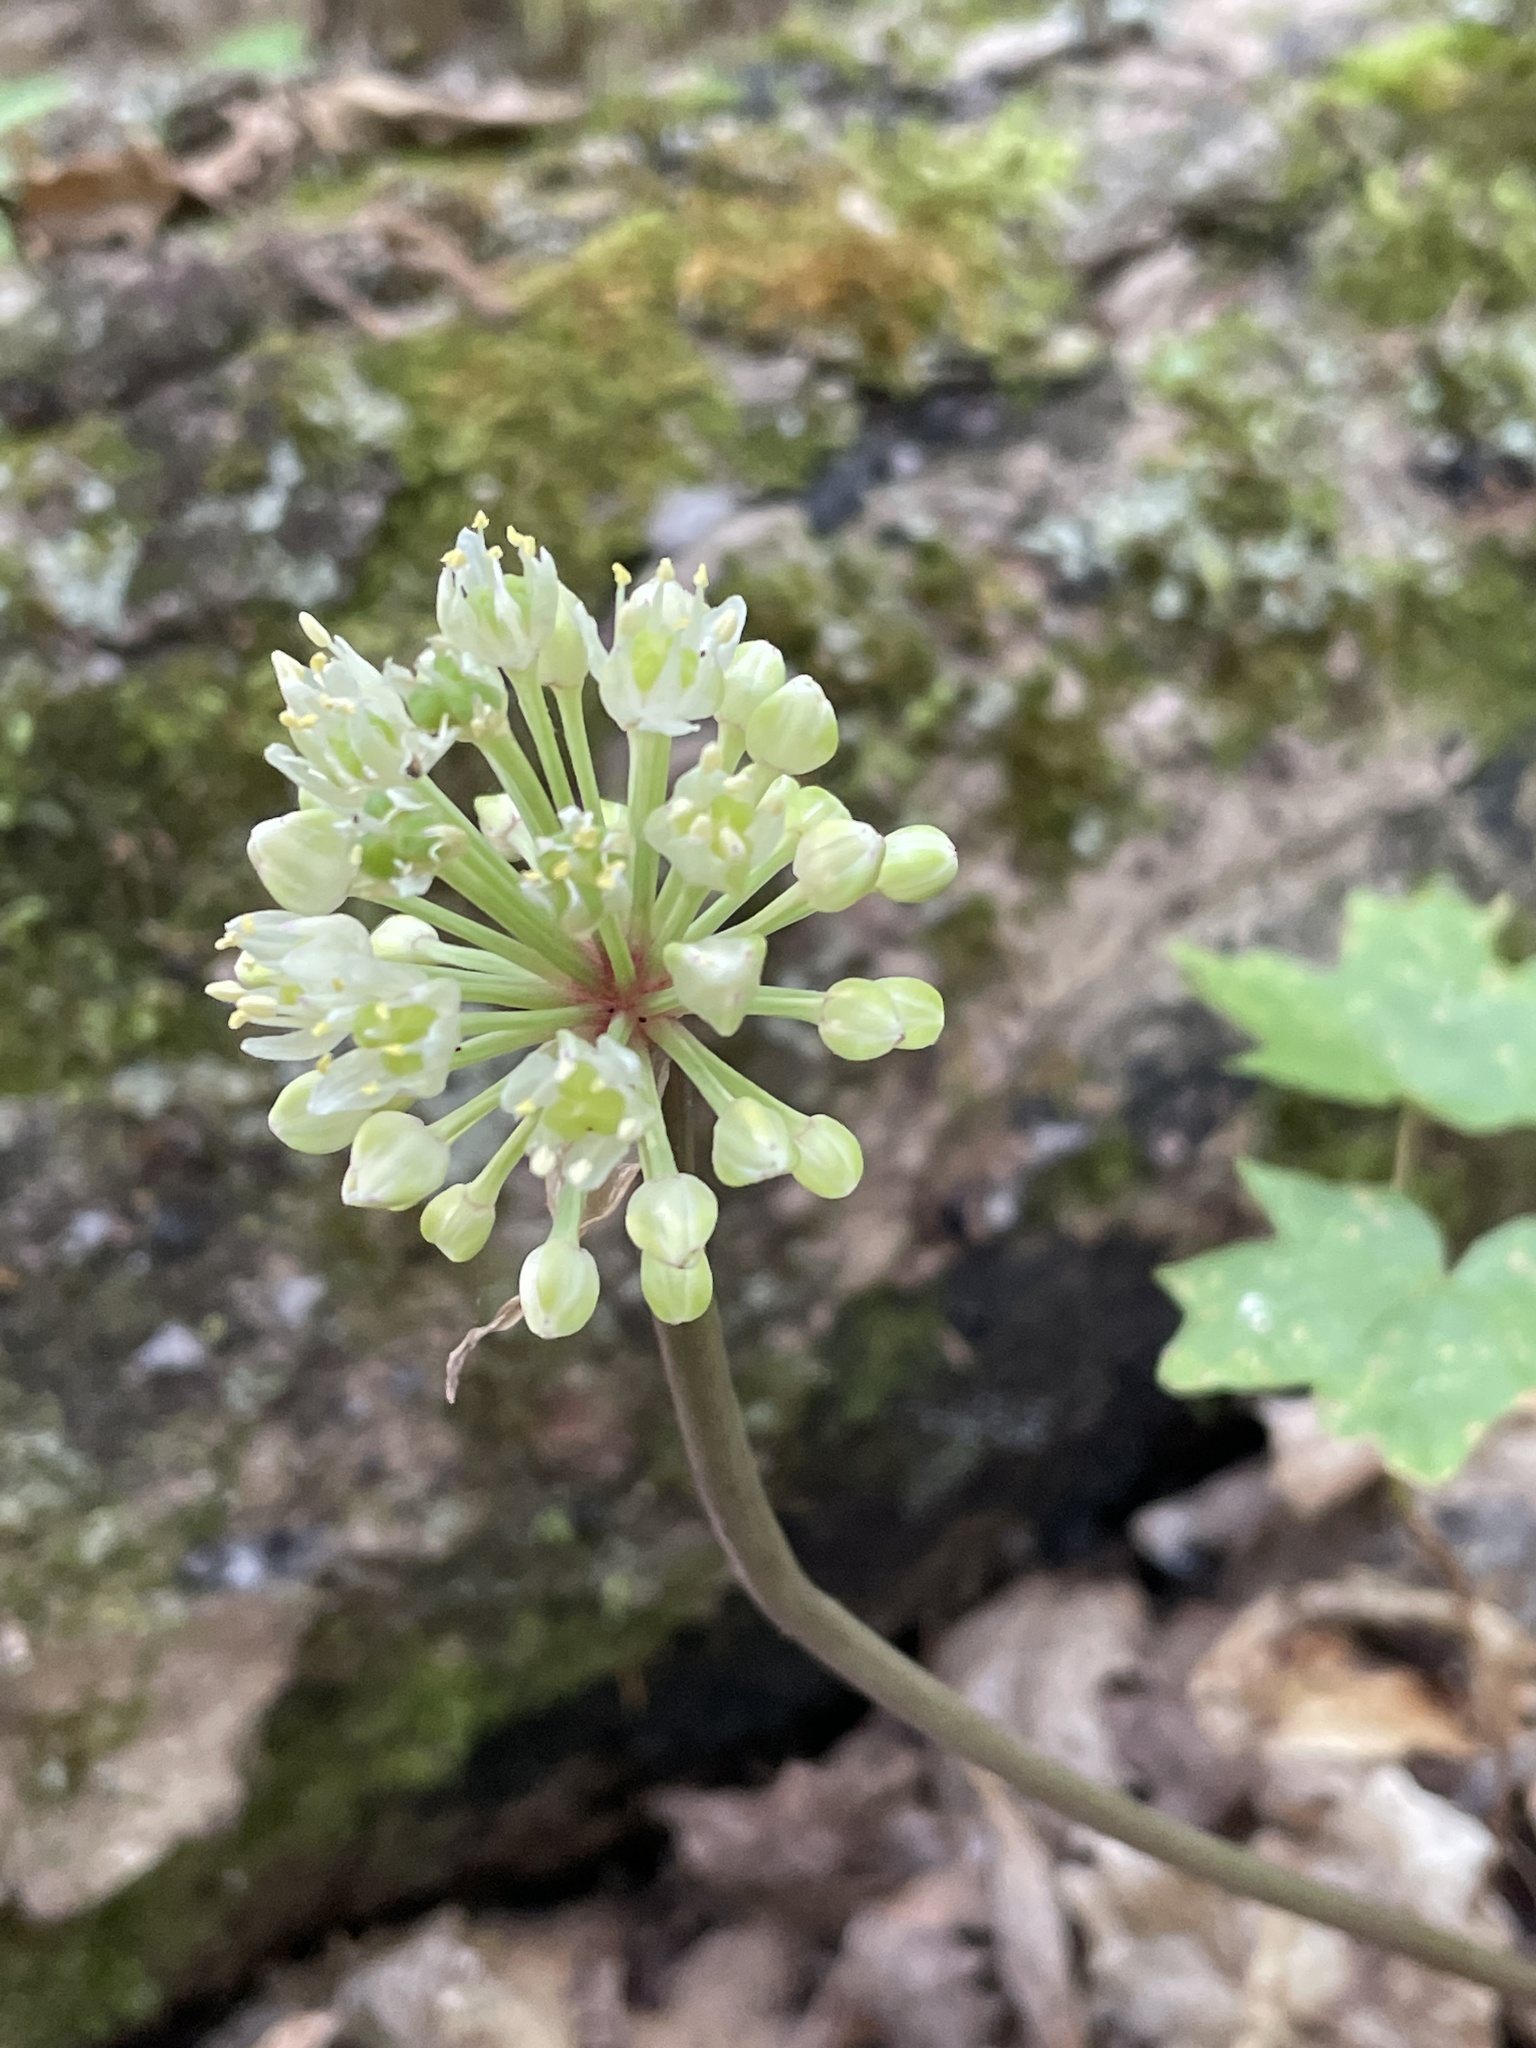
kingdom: Plantae
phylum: Tracheophyta
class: Liliopsida
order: Asparagales
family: Amaryllidaceae
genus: Allium
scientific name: Allium tricoccum
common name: Ramp
